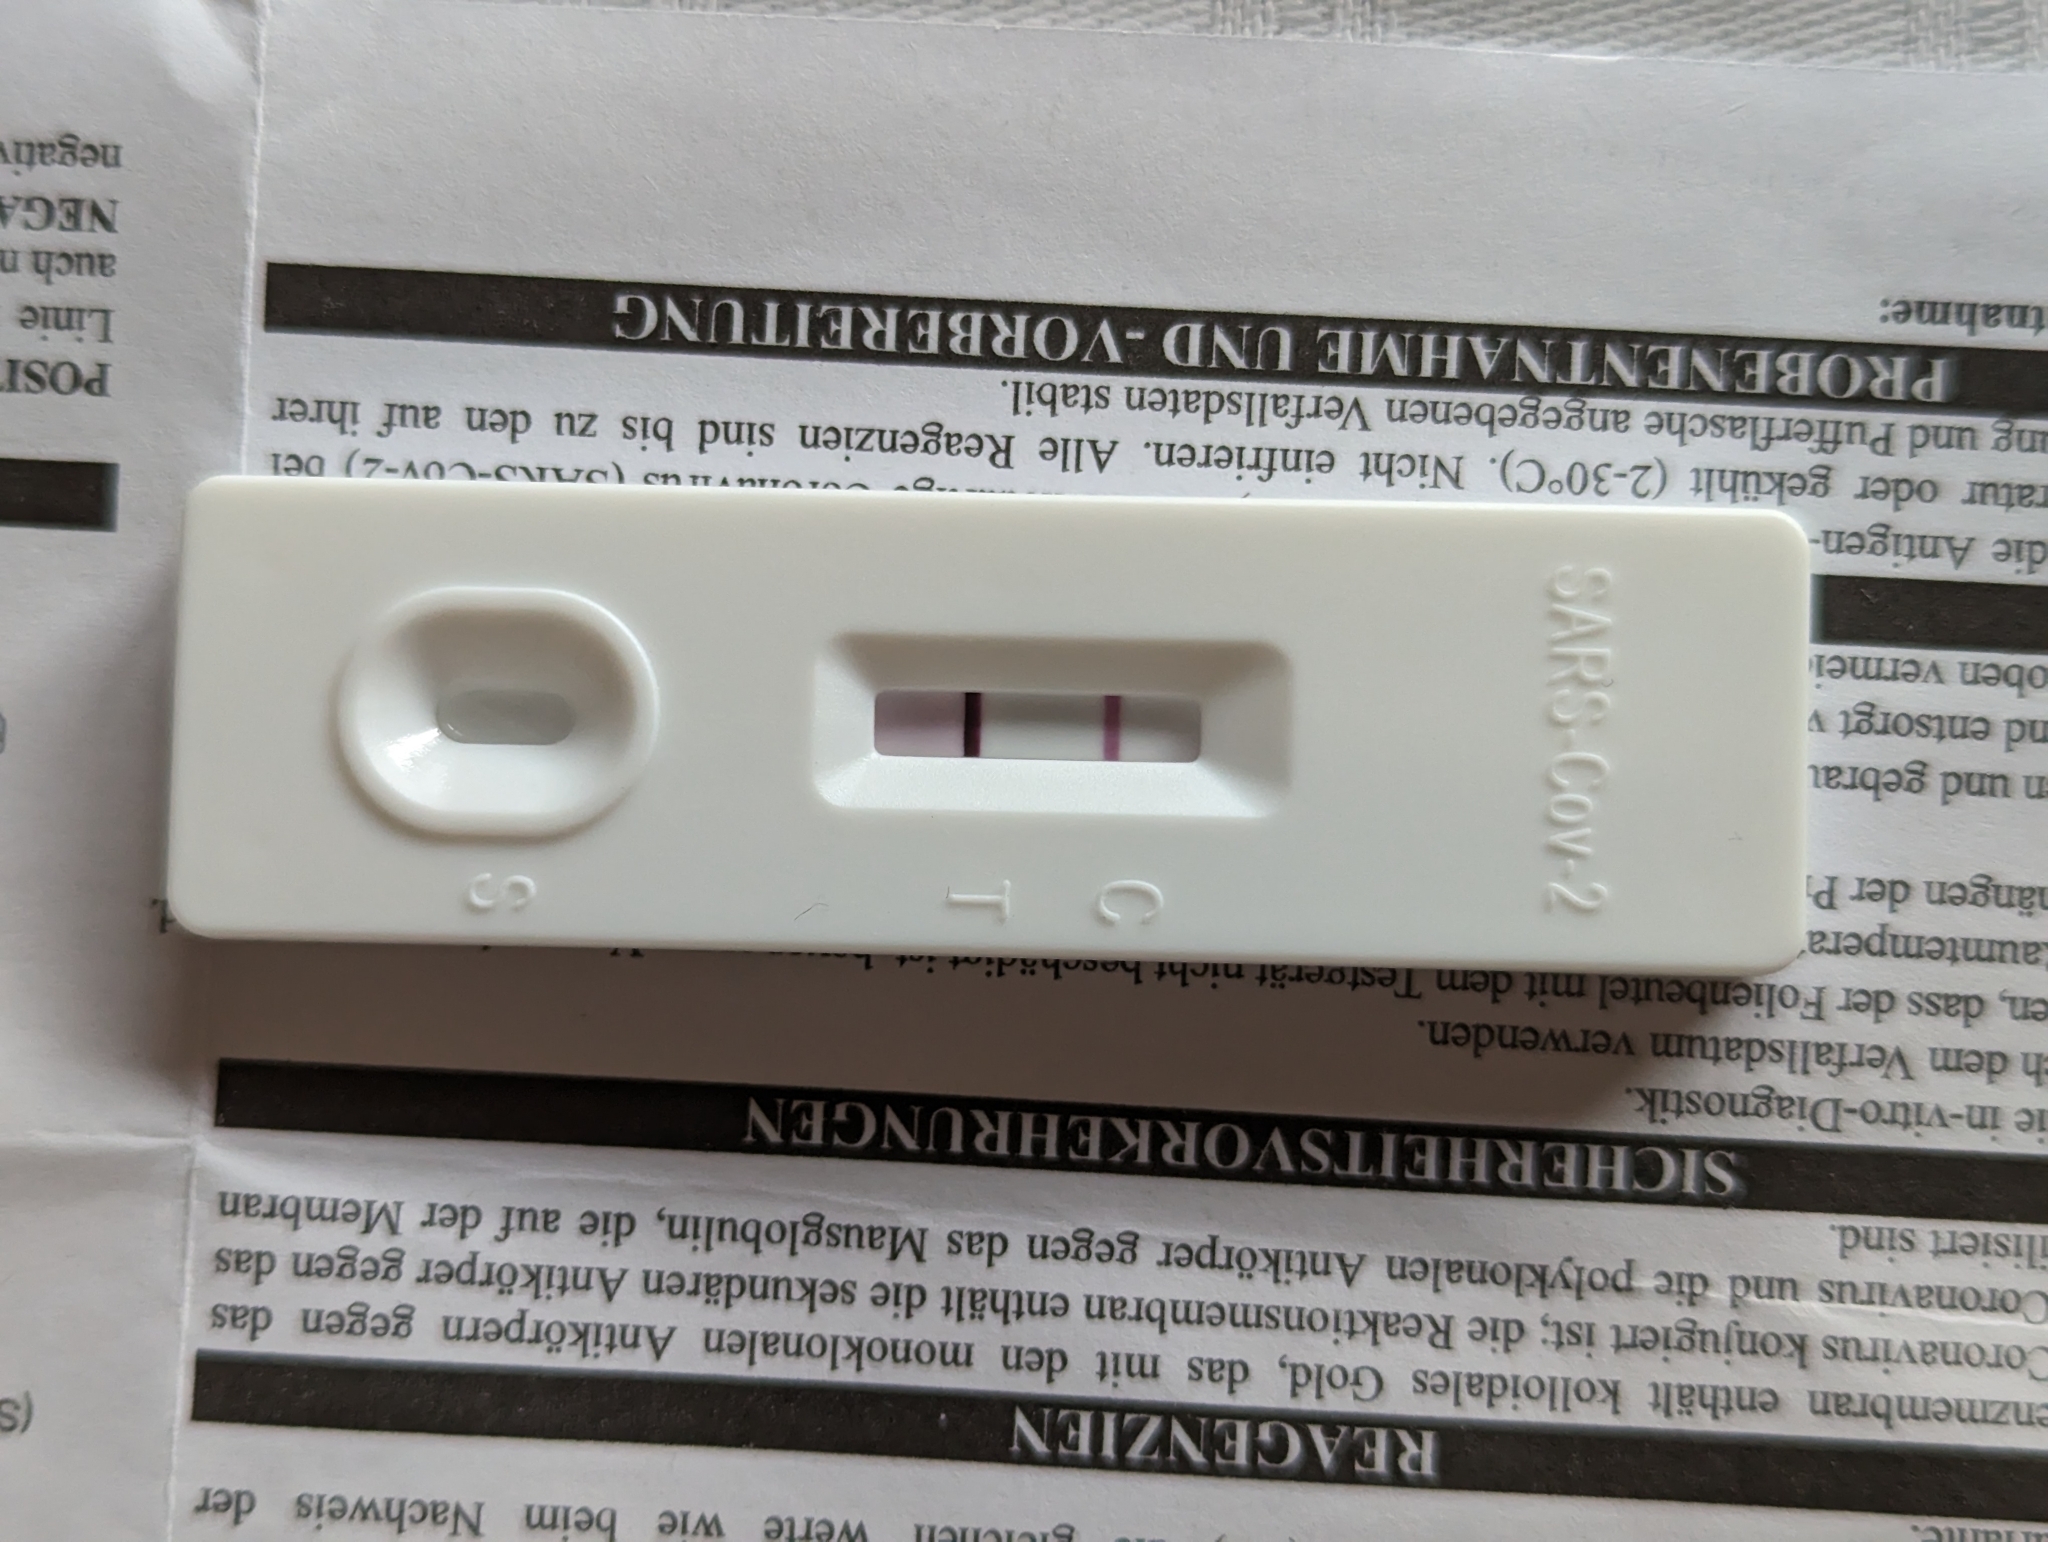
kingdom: Viruses
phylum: Pisuviricota
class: Pisoniviricetes
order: Nidovirales
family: Coronaviridae
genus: Betacoronavirus
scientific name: Betacoronavirus Severe acute respiratory syndrome-related coronavirus
